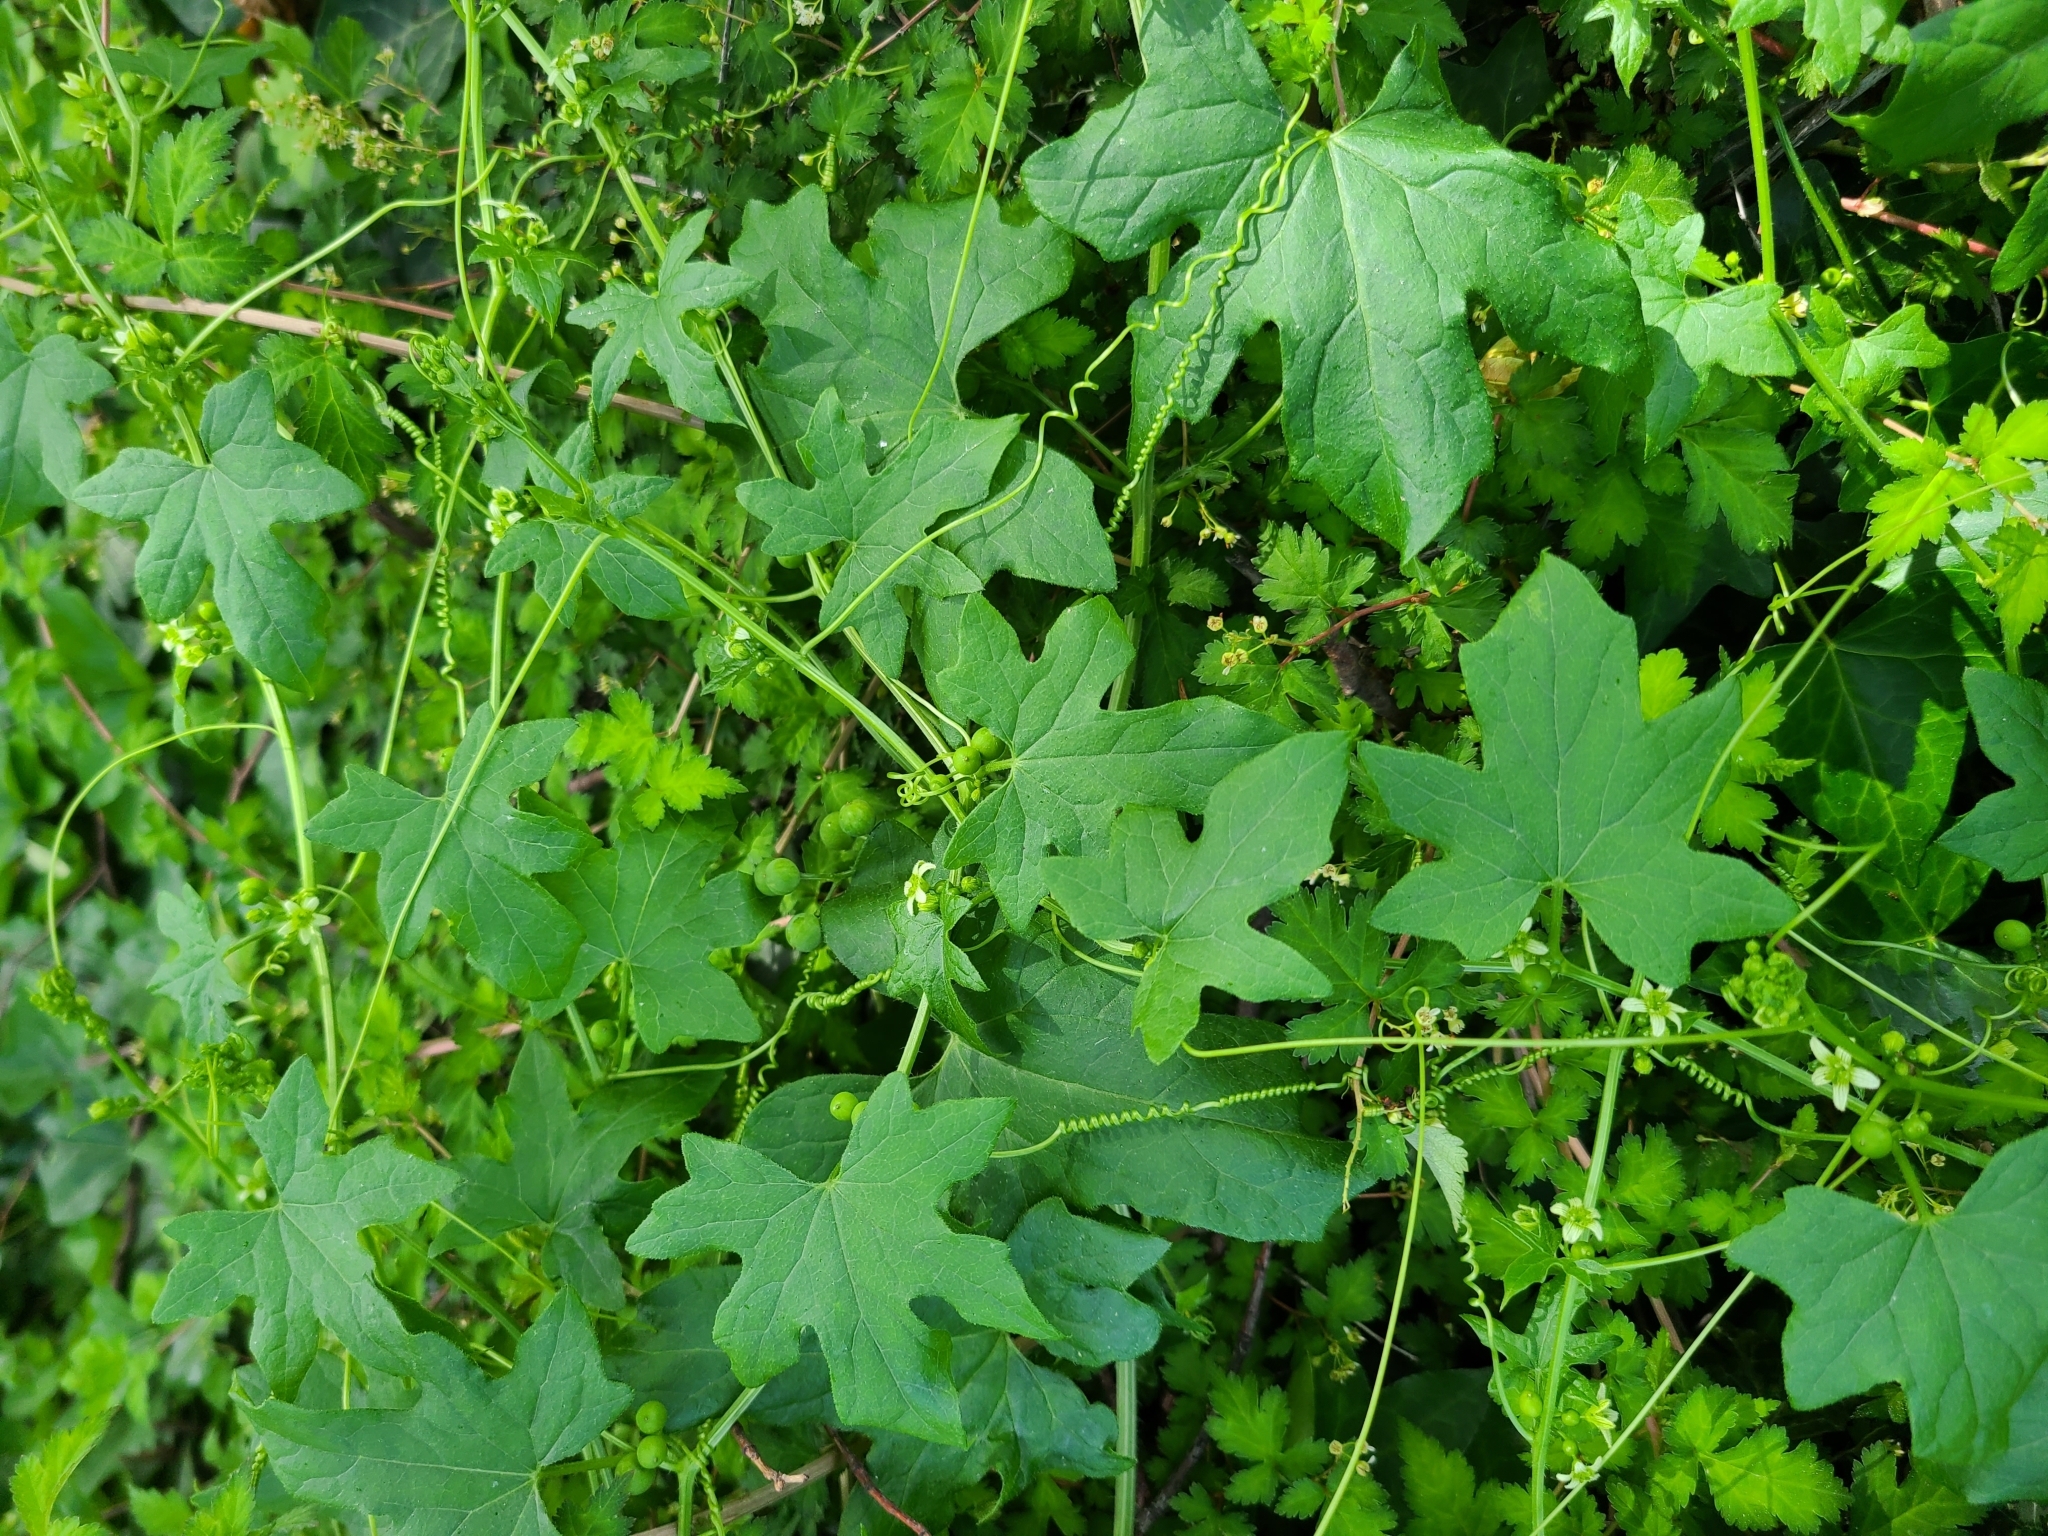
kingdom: Plantae
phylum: Tracheophyta
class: Magnoliopsida
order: Cucurbitales
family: Cucurbitaceae
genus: Bryonia
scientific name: Bryonia cretica
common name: Cretan bryony
